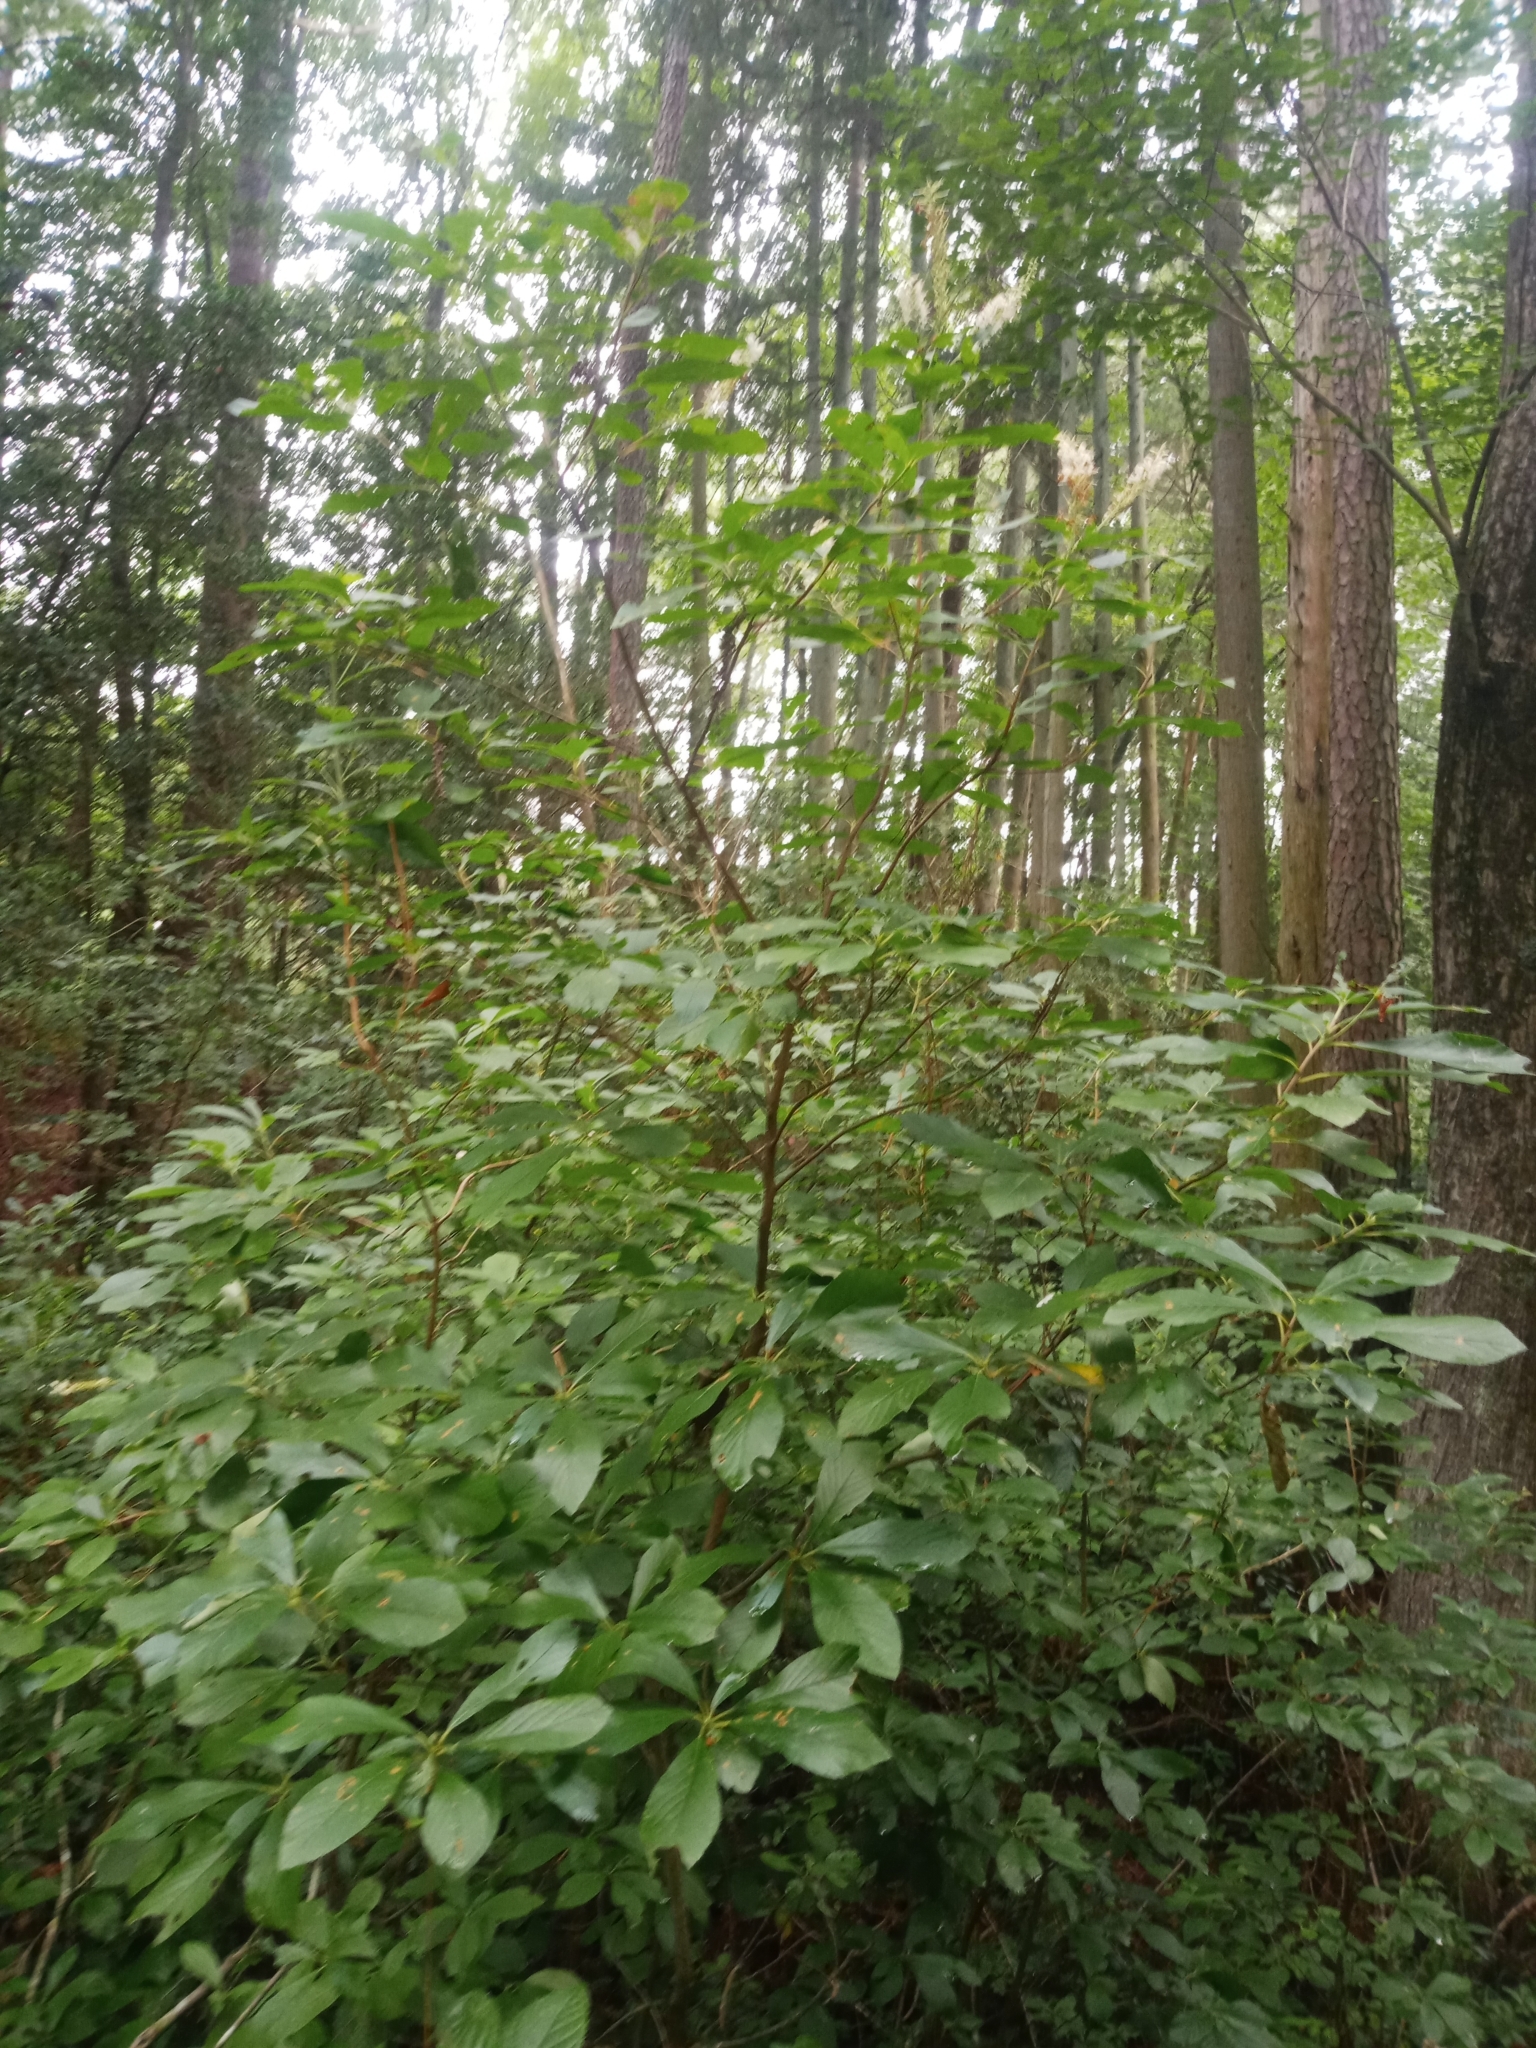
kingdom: Plantae
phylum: Tracheophyta
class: Magnoliopsida
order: Ericales
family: Clethraceae
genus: Clethra
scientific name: Clethra alnifolia
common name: Sweet pepperbush
